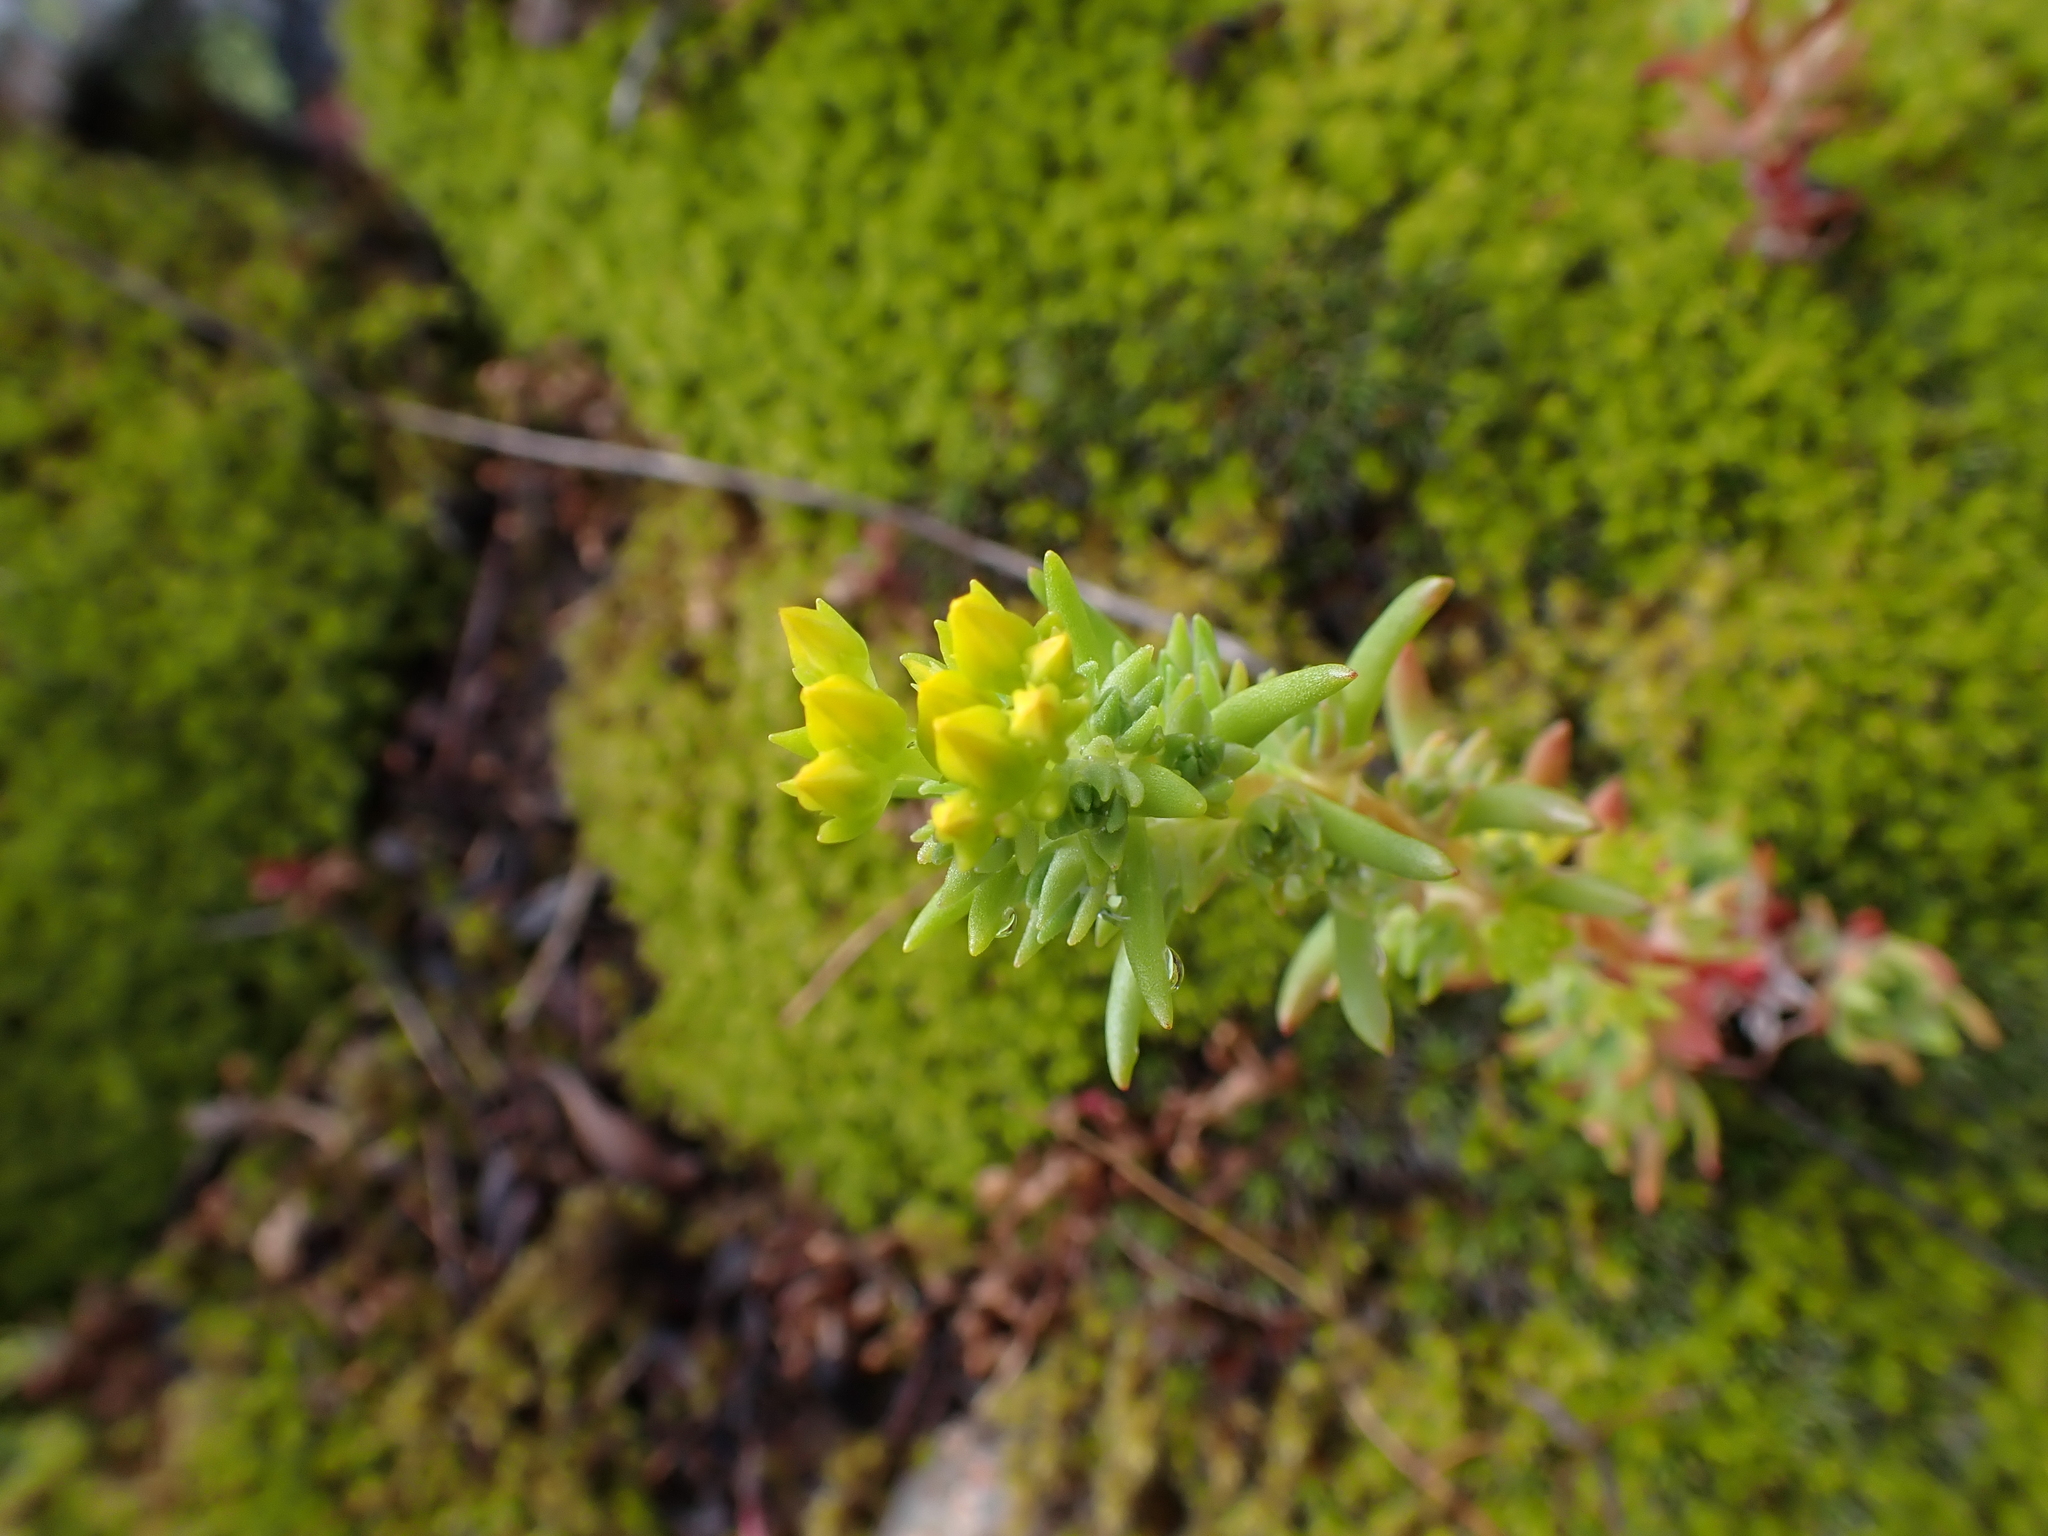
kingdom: Plantae
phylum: Tracheophyta
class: Magnoliopsida
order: Saxifragales
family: Crassulaceae
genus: Sedum
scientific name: Sedum stenopetalum
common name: Narrow-petaled stonecrop
